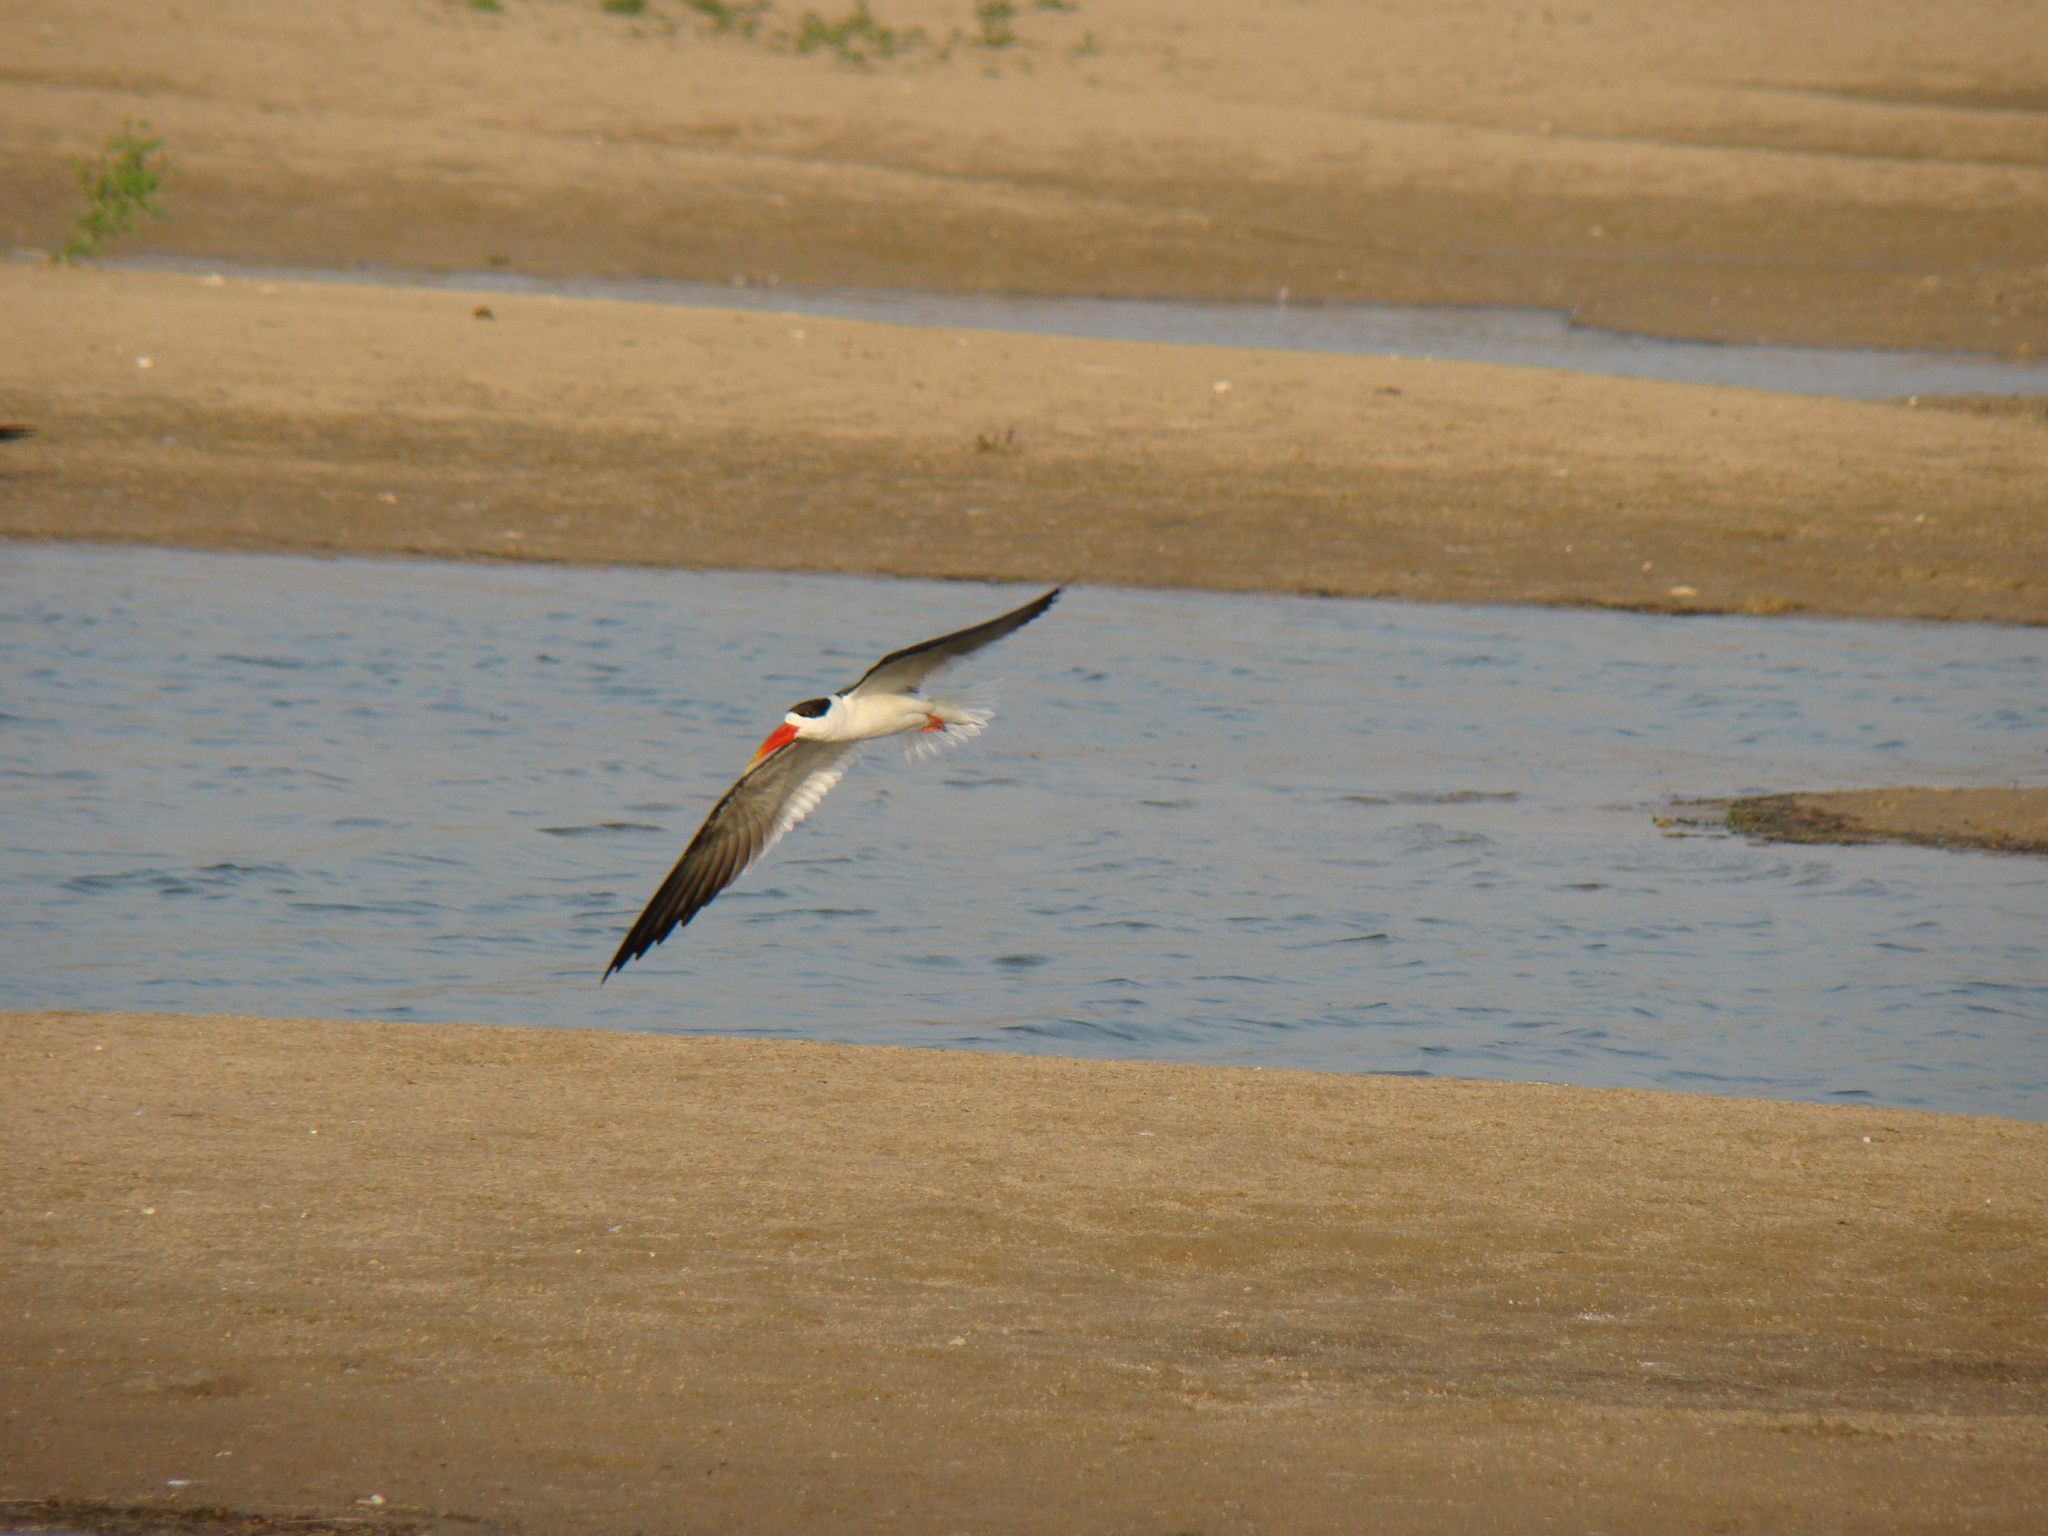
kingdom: Animalia
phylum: Chordata
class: Aves
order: Charadriiformes
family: Laridae
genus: Rynchops
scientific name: Rynchops albicollis
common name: Indian skimmer
